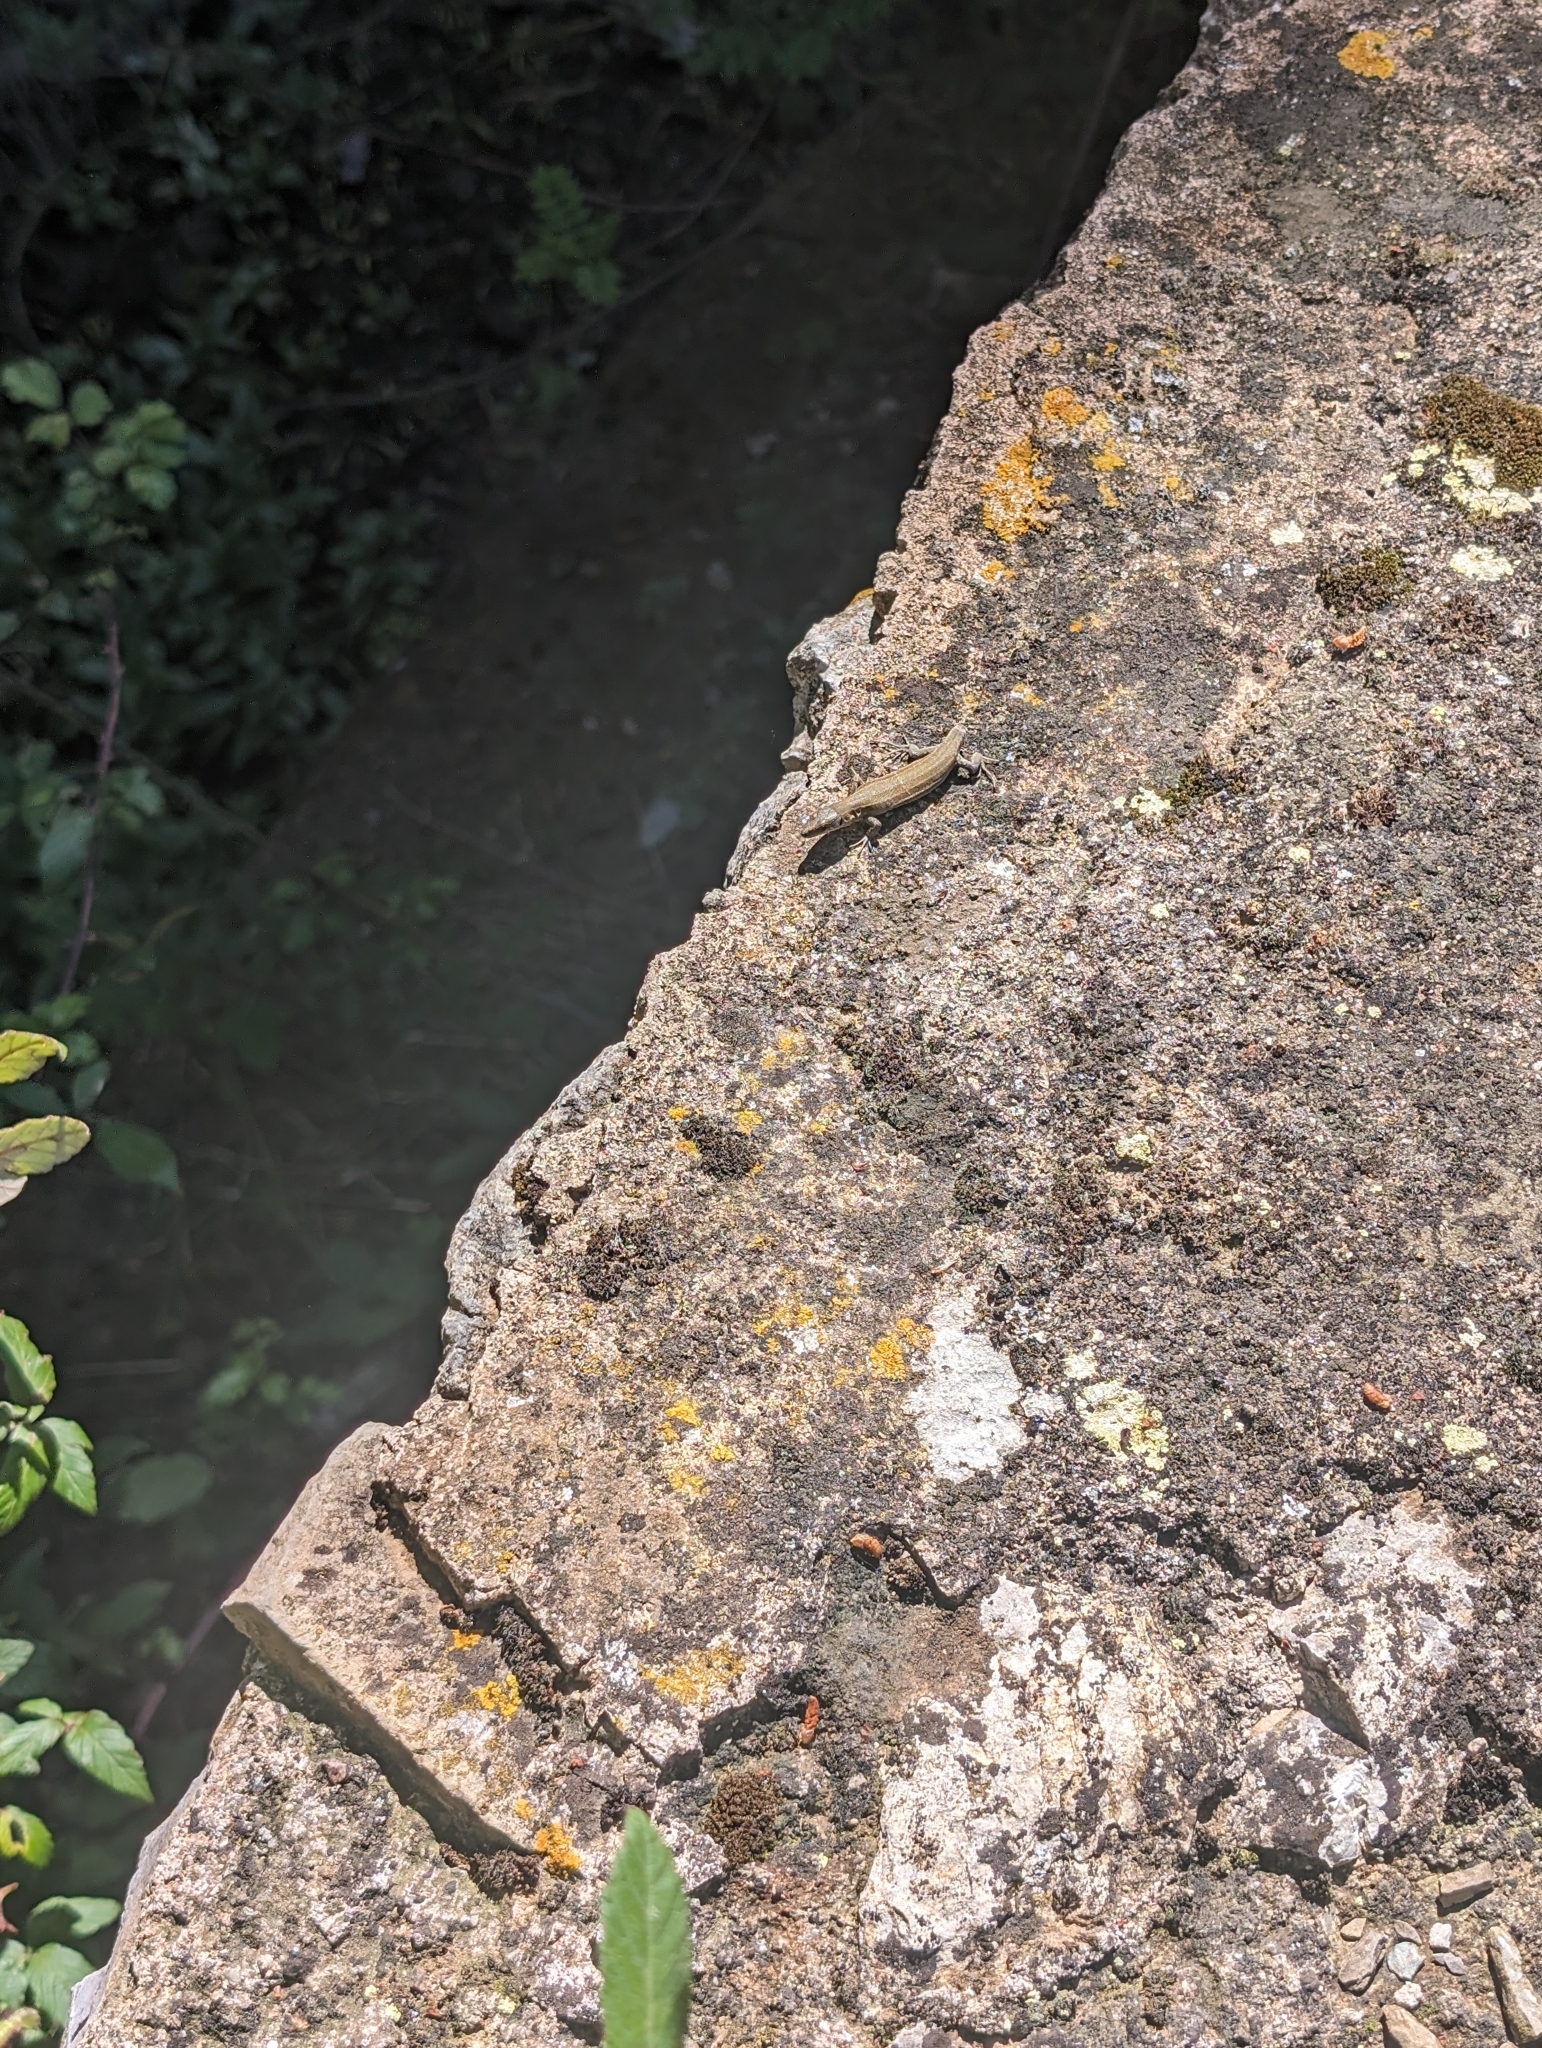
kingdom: Animalia
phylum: Chordata
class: Squamata
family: Lacertidae
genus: Podarcis
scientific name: Podarcis liolepis
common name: Catalonian wall lizard
